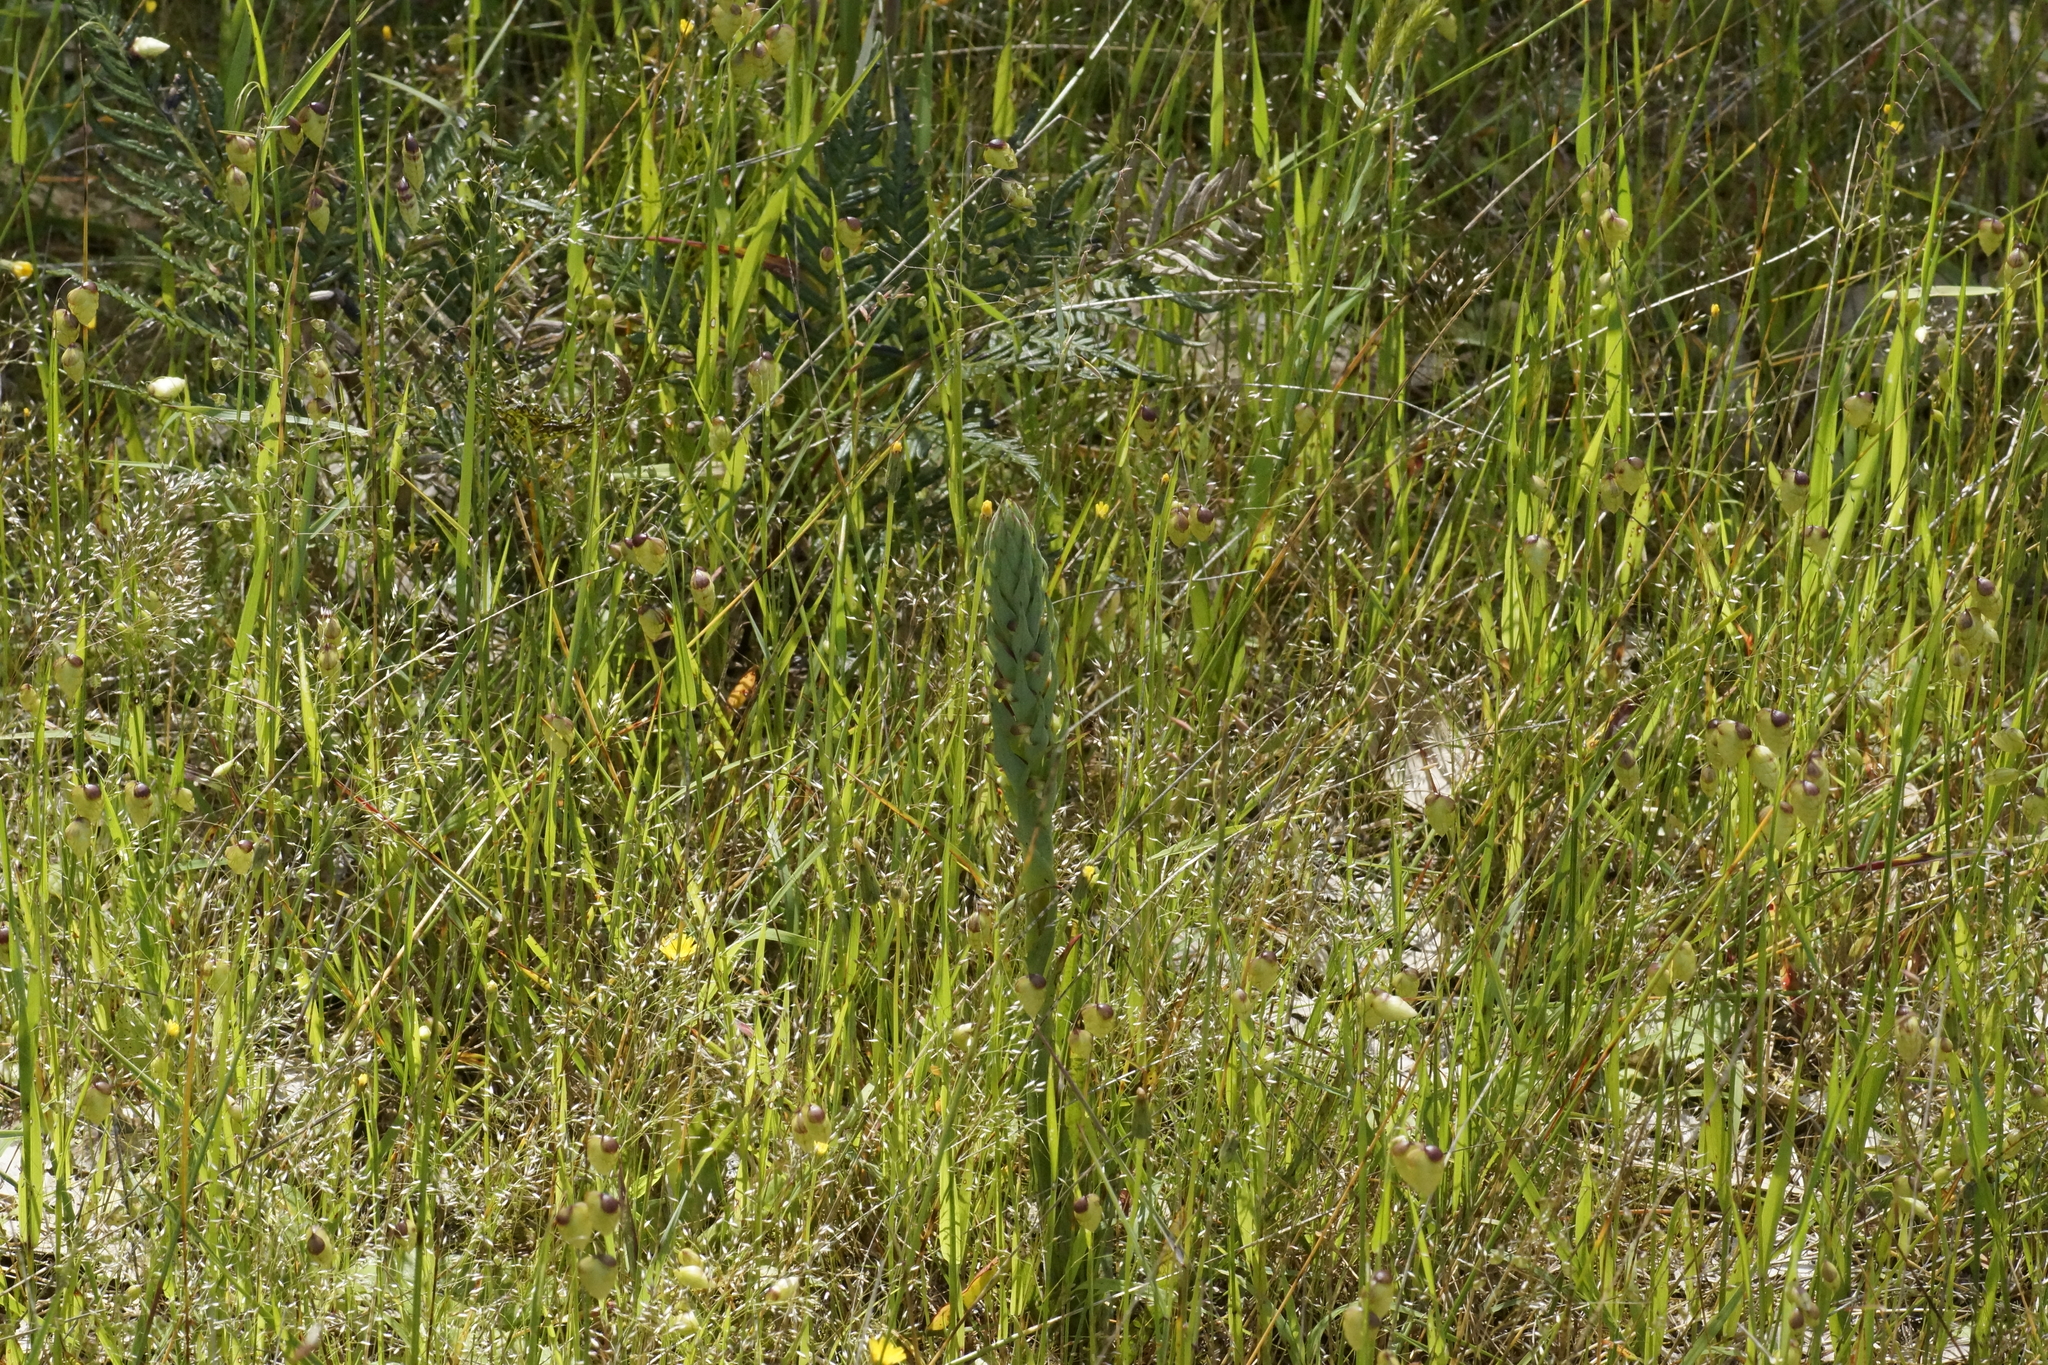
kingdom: Plantae
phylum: Tracheophyta
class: Liliopsida
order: Asparagales
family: Orchidaceae
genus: Disa
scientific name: Disa bracteata
